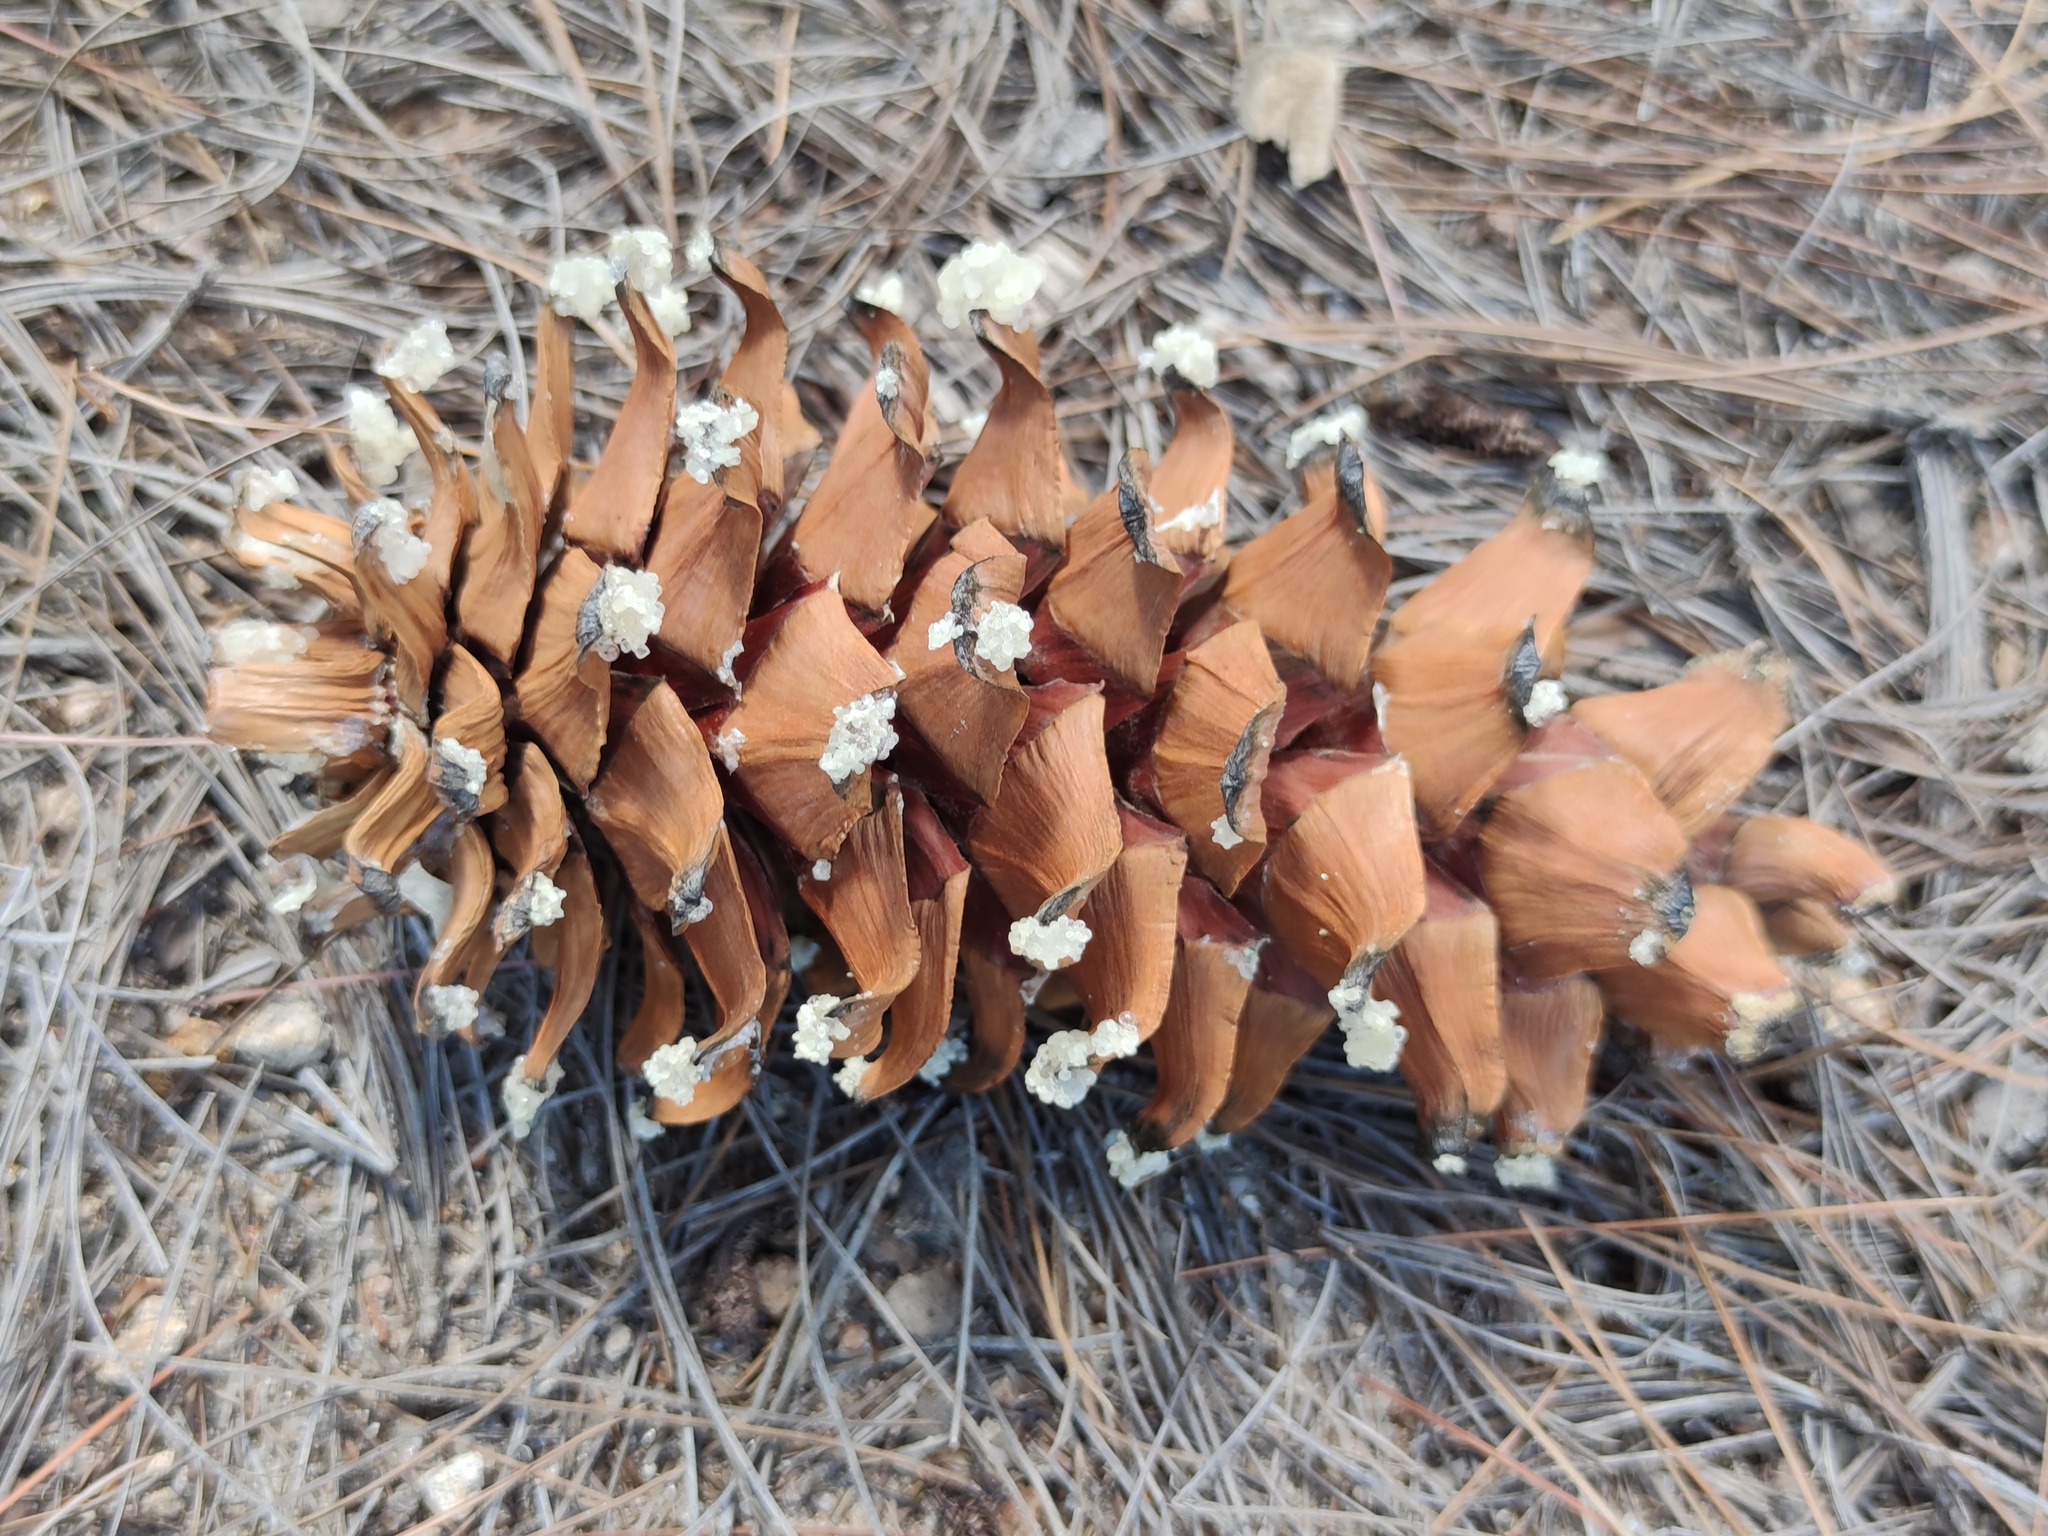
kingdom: Plantae
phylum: Tracheophyta
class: Pinopsida
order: Pinales
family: Pinaceae
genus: Pinus
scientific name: Pinus strobiformis
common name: Southwestern white pine
